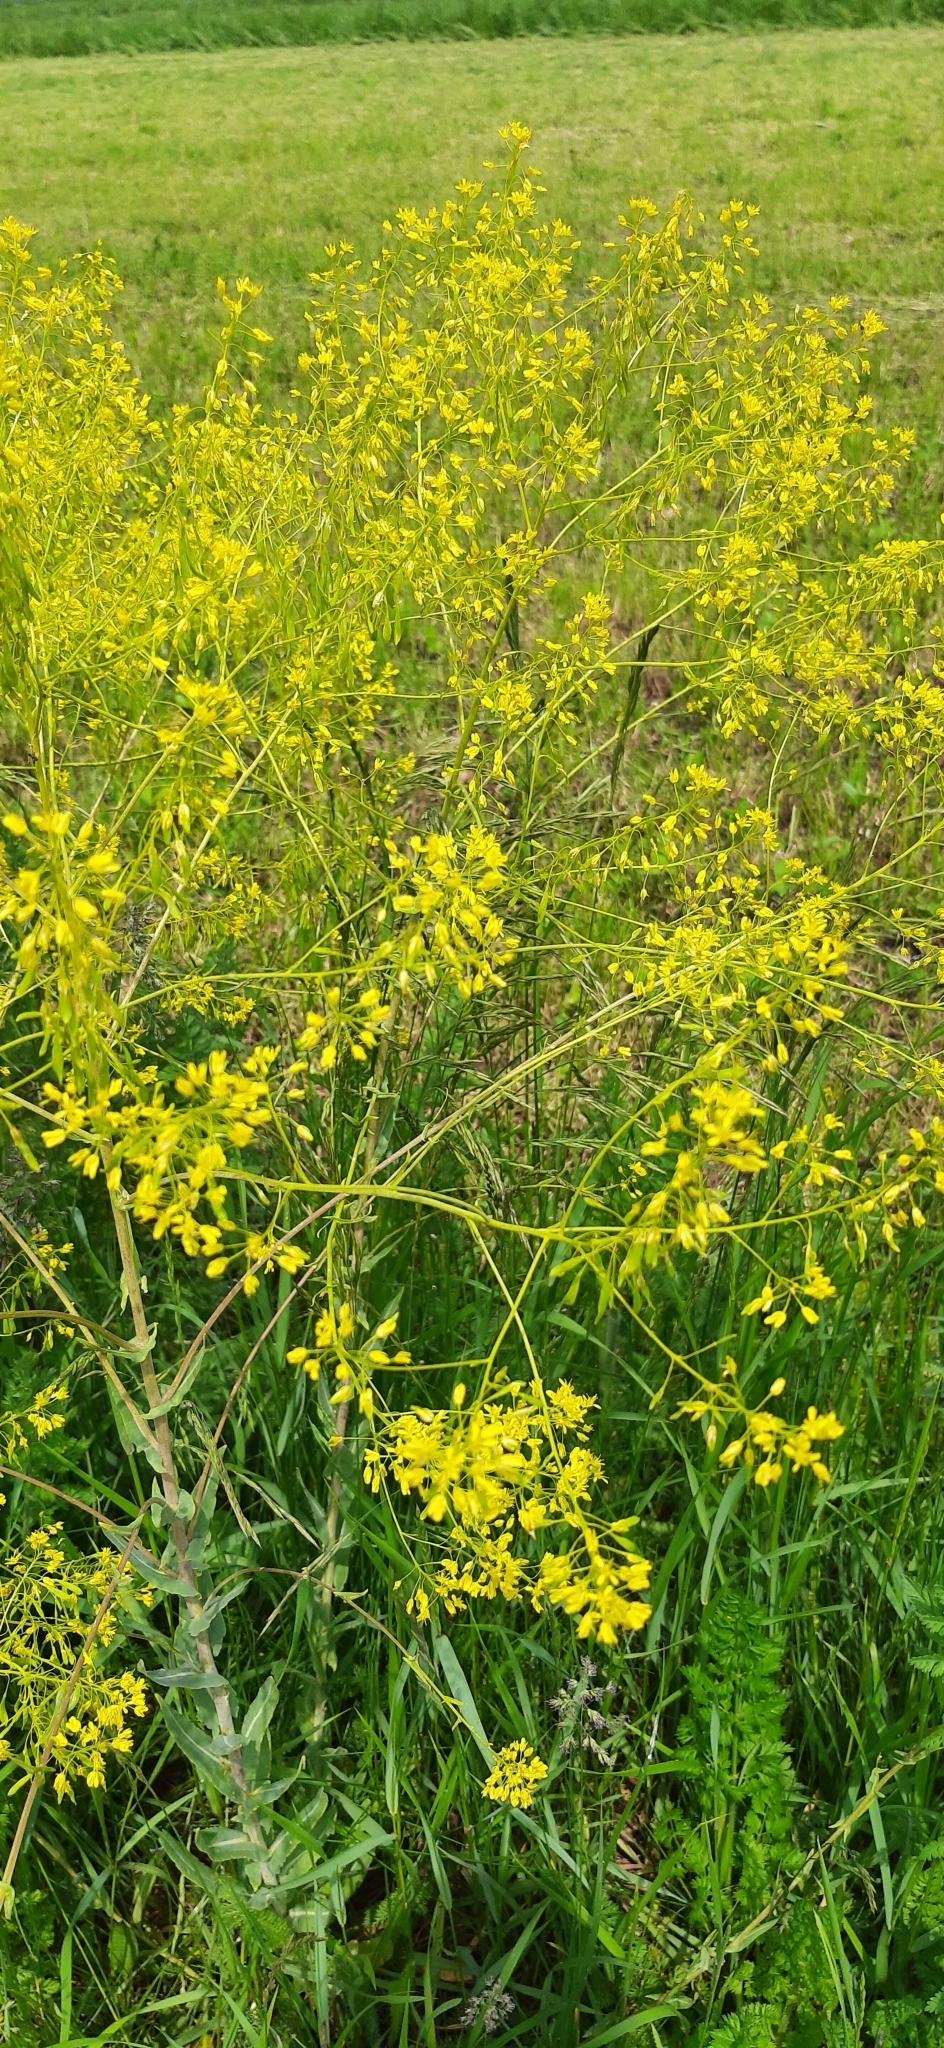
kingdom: Plantae
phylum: Tracheophyta
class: Magnoliopsida
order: Brassicales
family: Brassicaceae
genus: Isatis
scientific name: Isatis tinctoria
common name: Woad
